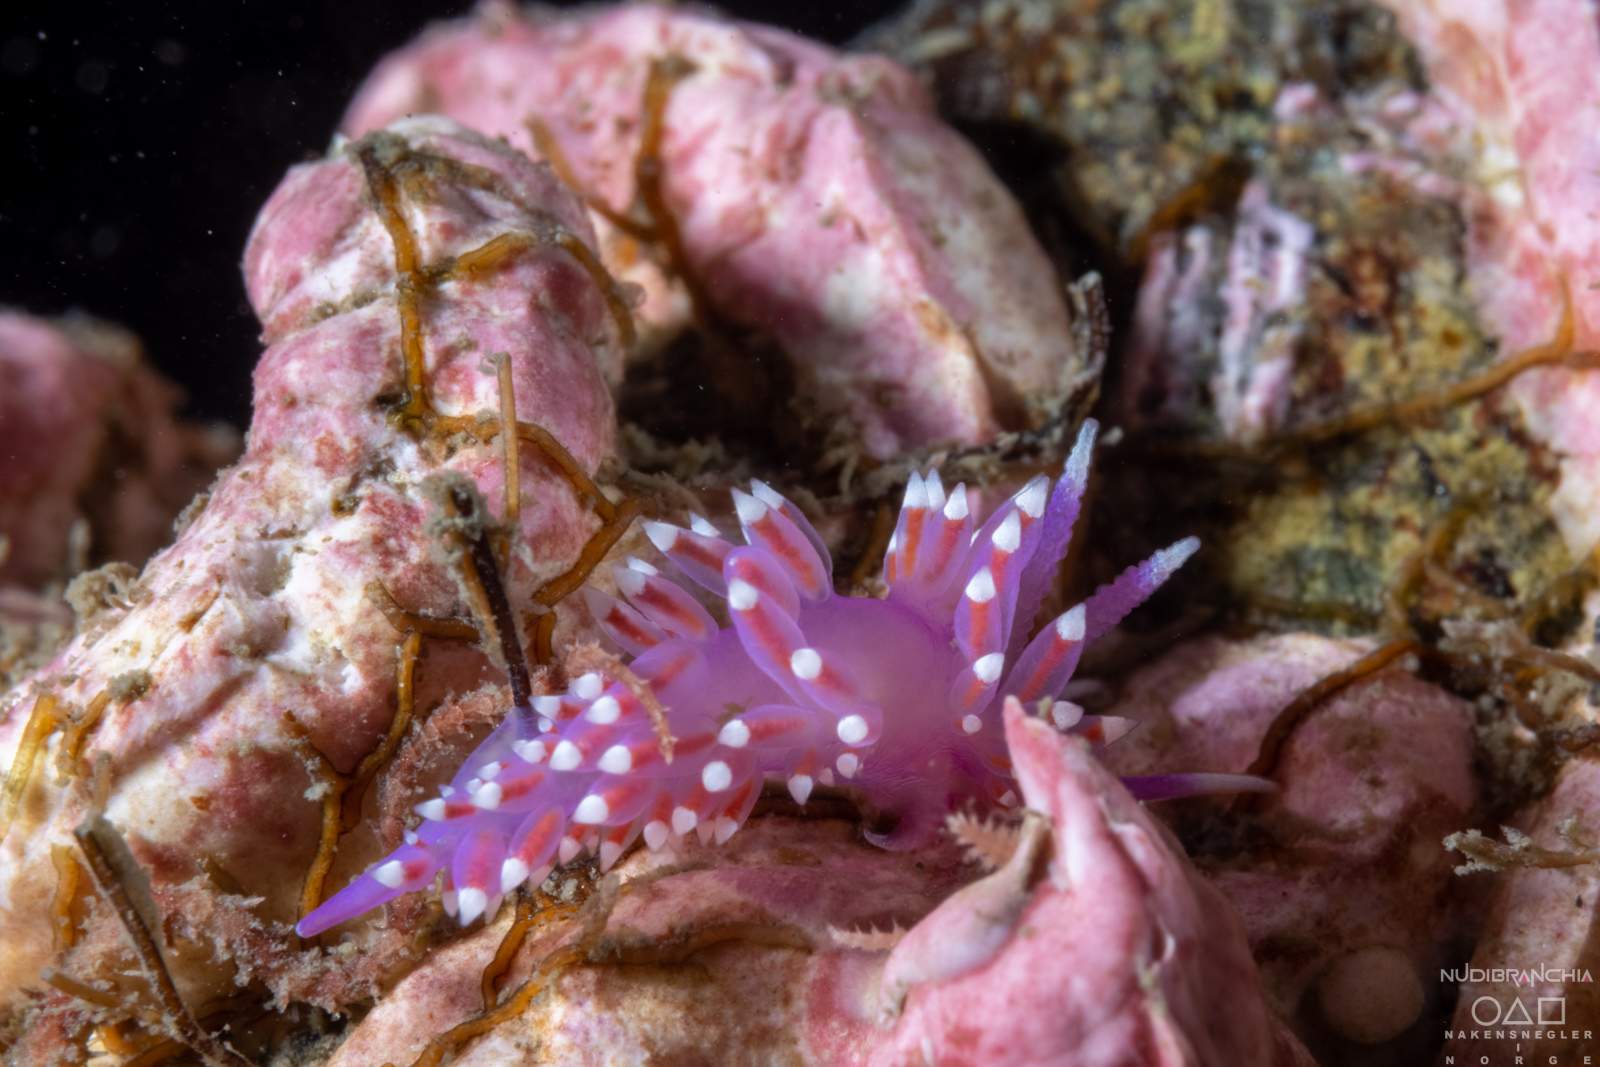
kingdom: Animalia
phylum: Mollusca
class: Gastropoda
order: Nudibranchia
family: Flabellinidae
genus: Edmundsella
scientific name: Edmundsella pedata
